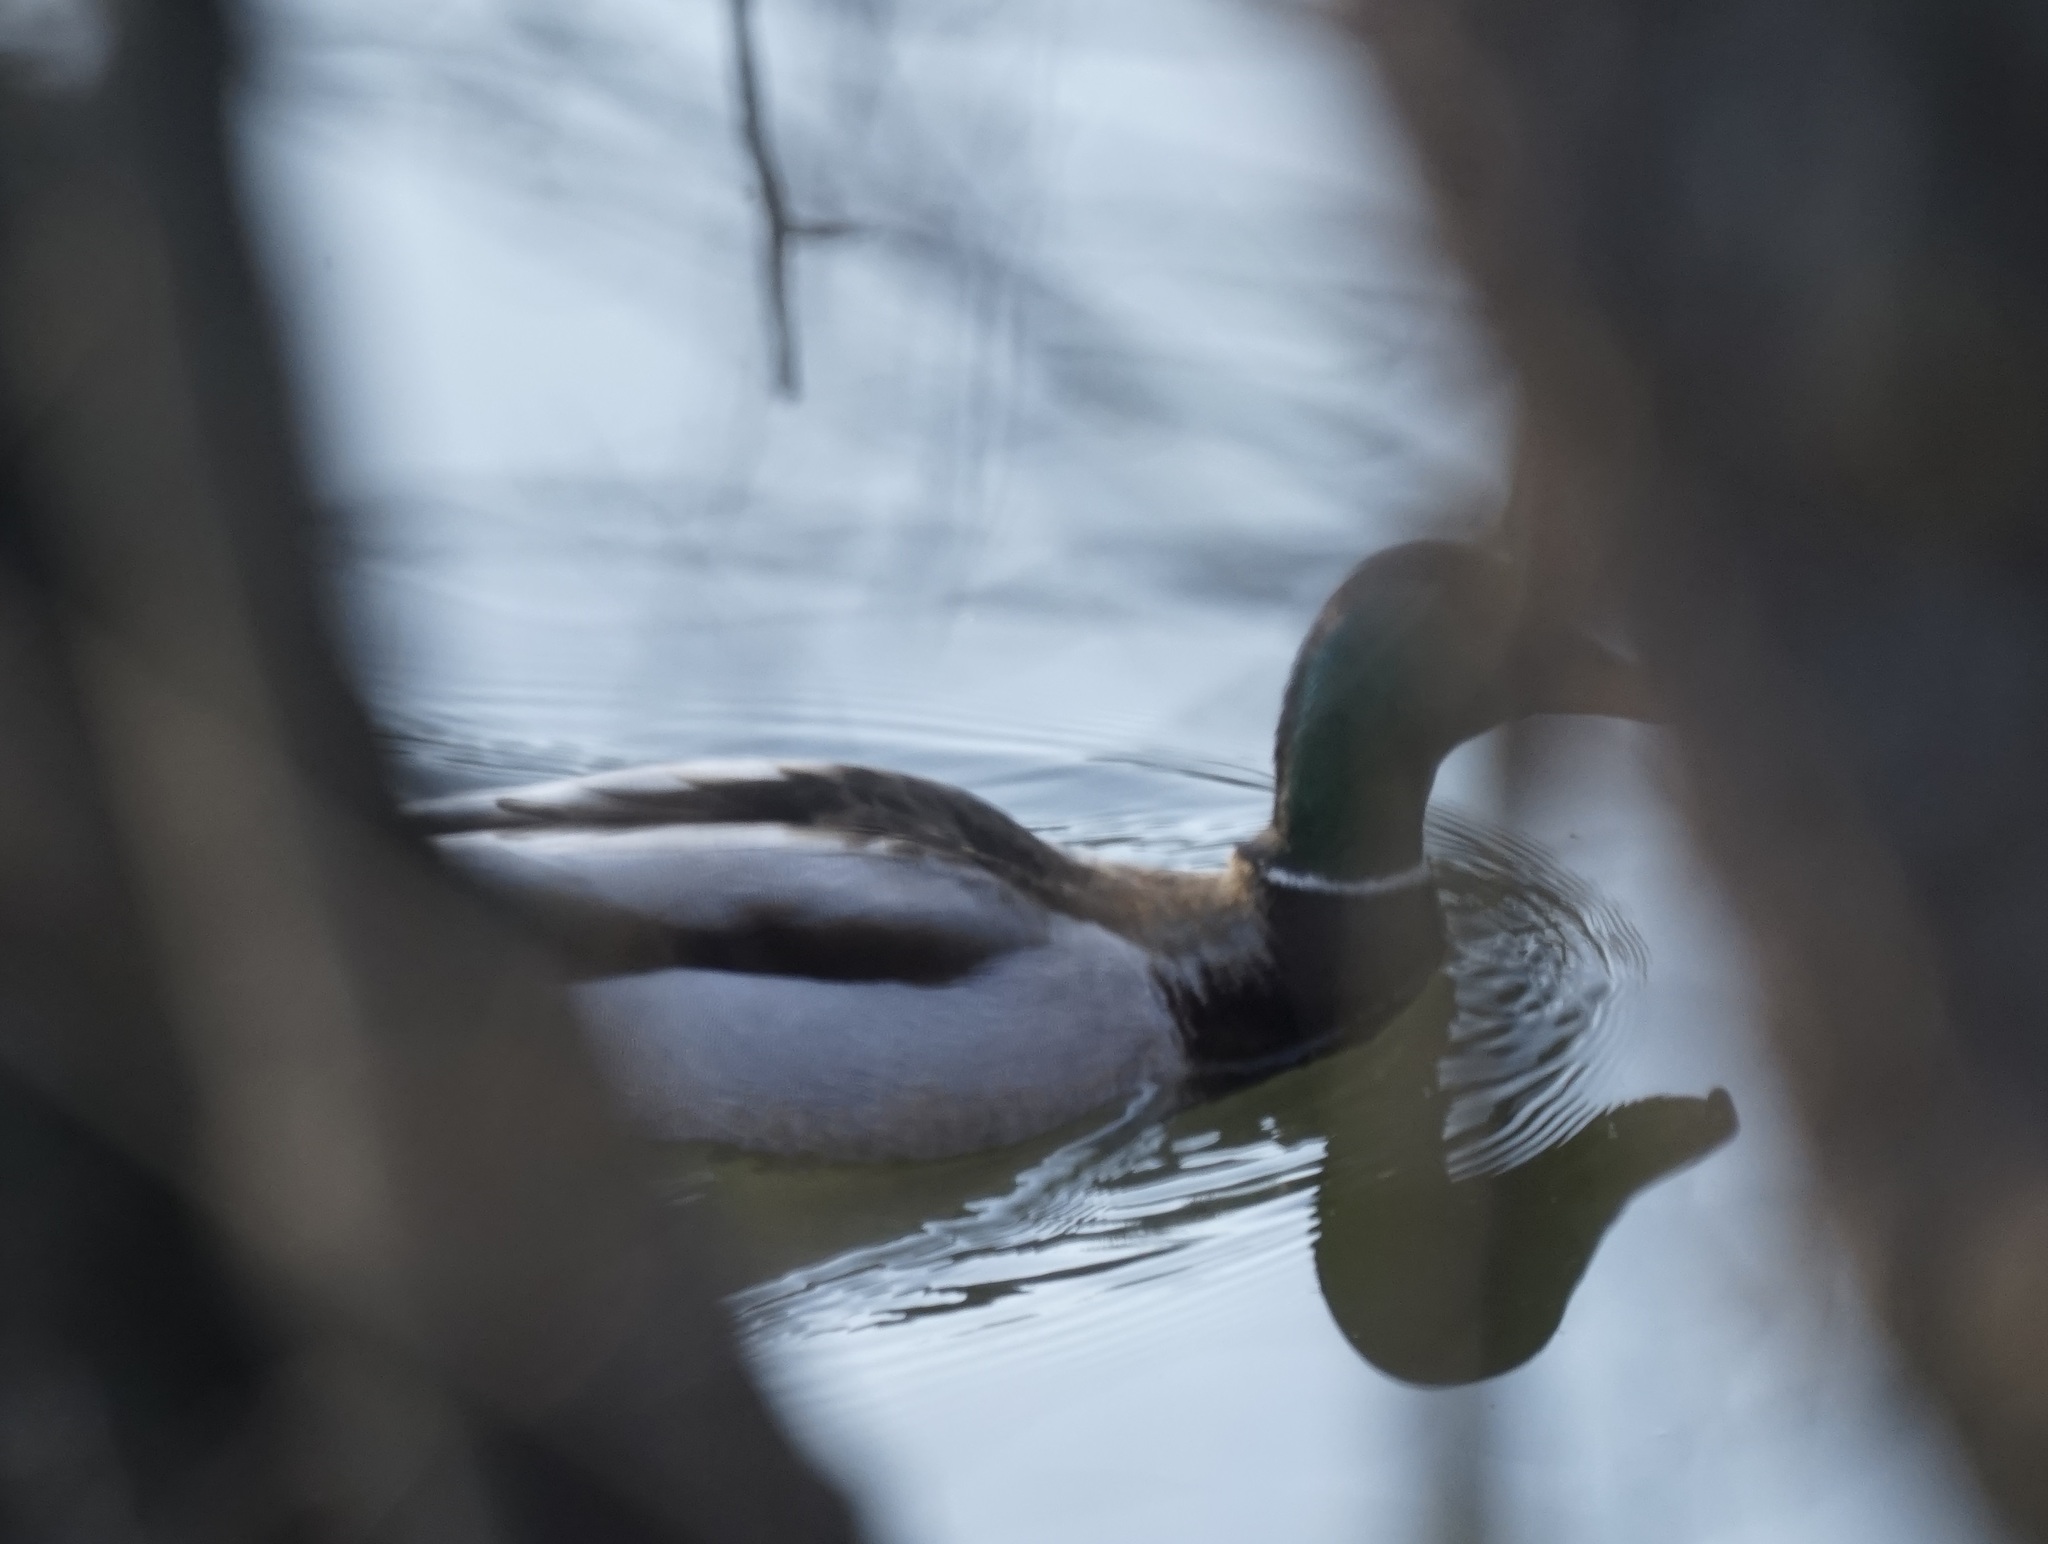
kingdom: Animalia
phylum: Chordata
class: Aves
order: Anseriformes
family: Anatidae
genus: Anas
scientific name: Anas platyrhynchos
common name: Mallard
